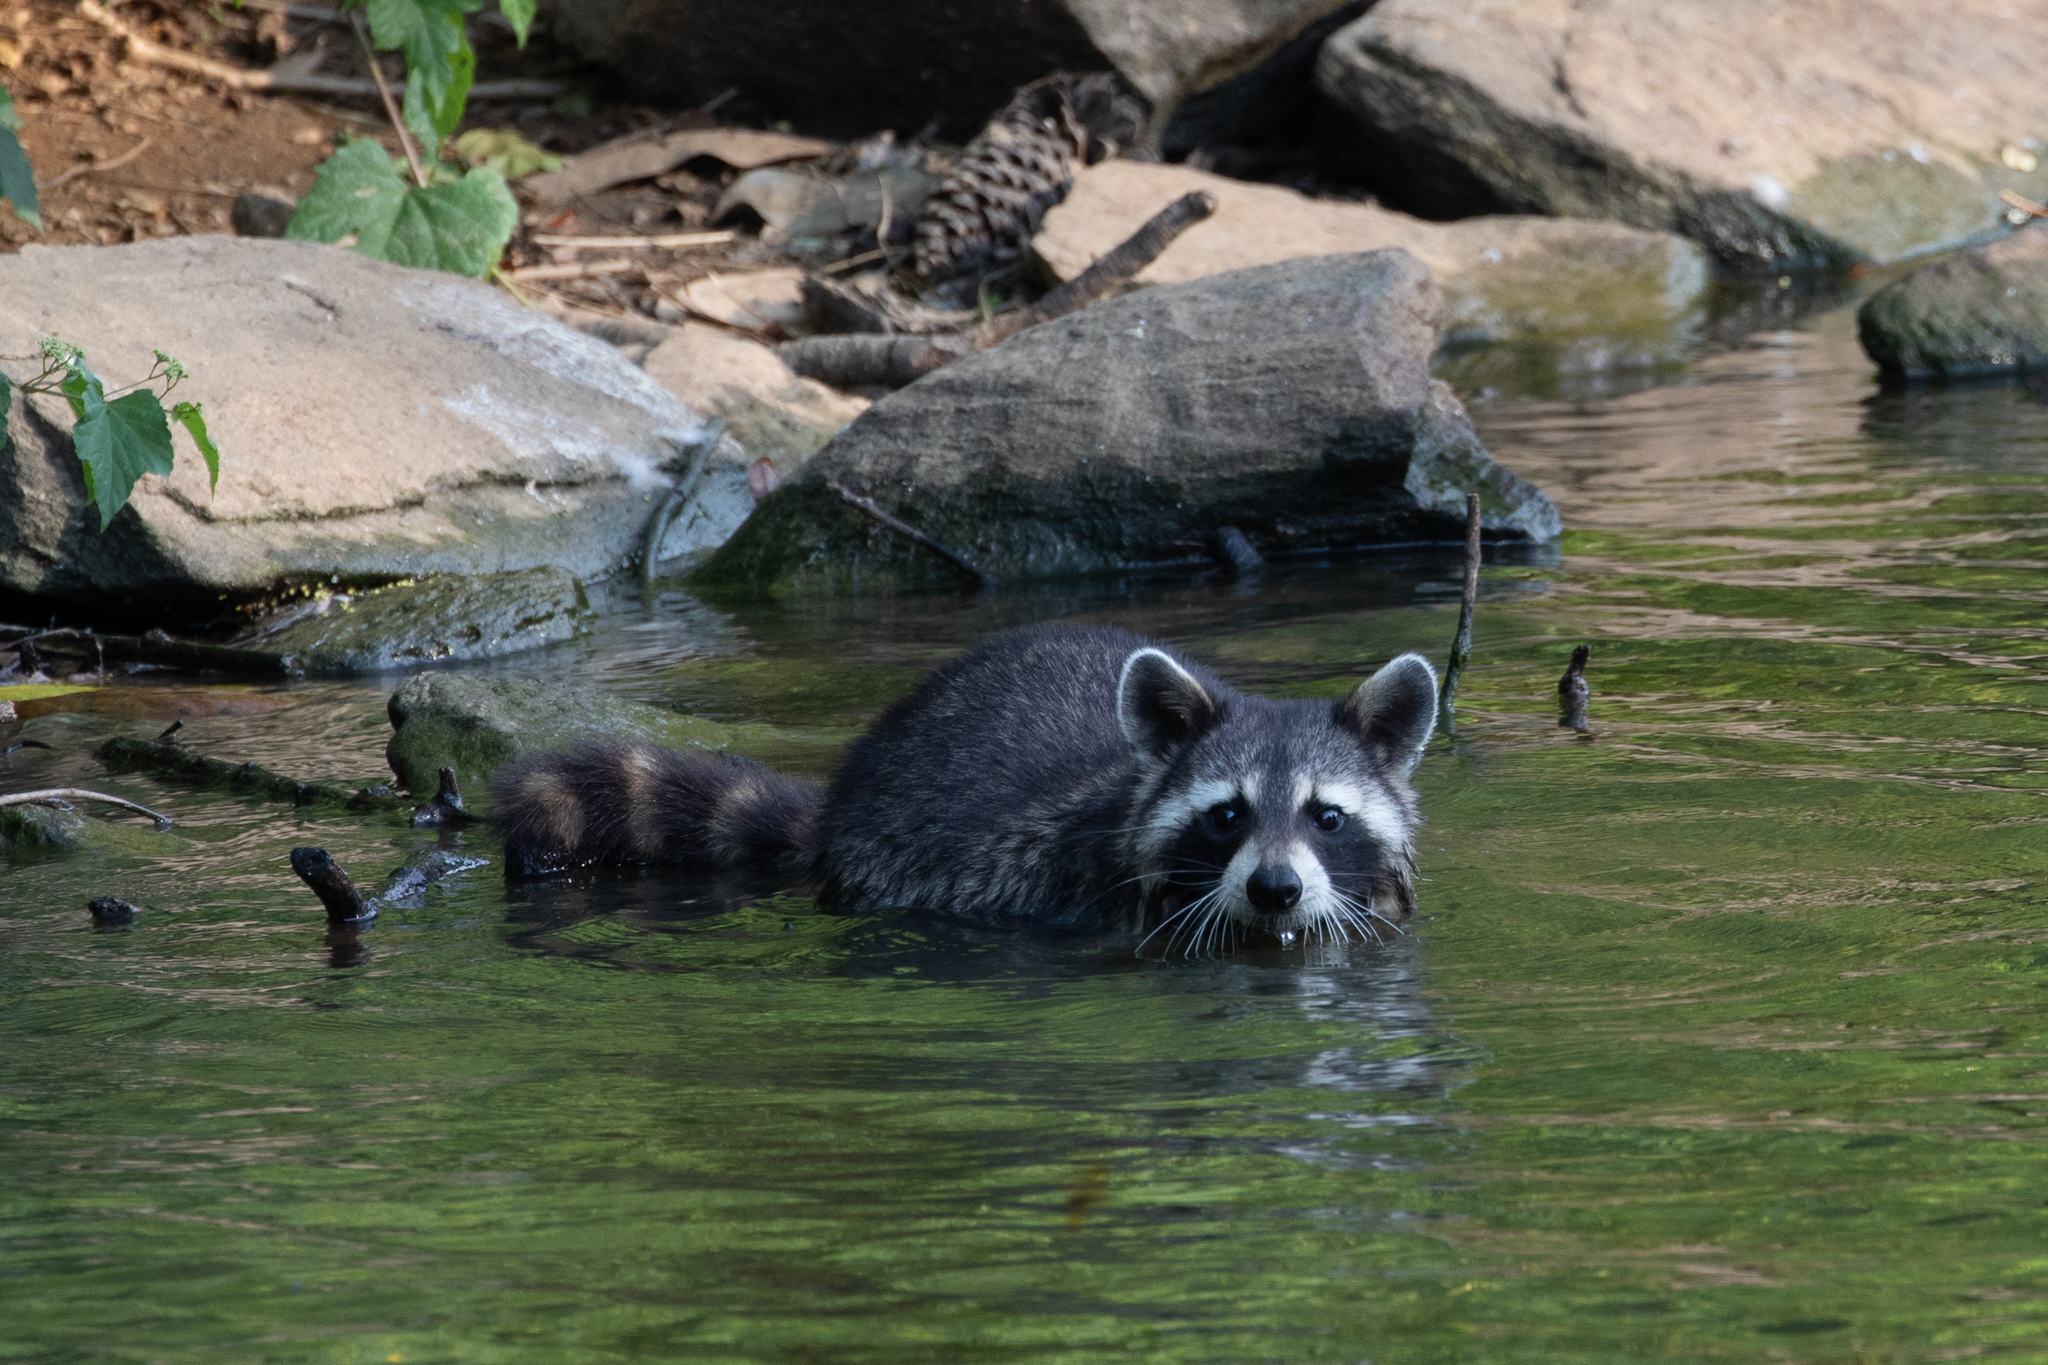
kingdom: Animalia
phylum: Chordata
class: Mammalia
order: Carnivora
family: Procyonidae
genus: Procyon
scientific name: Procyon lotor
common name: Raccoon
